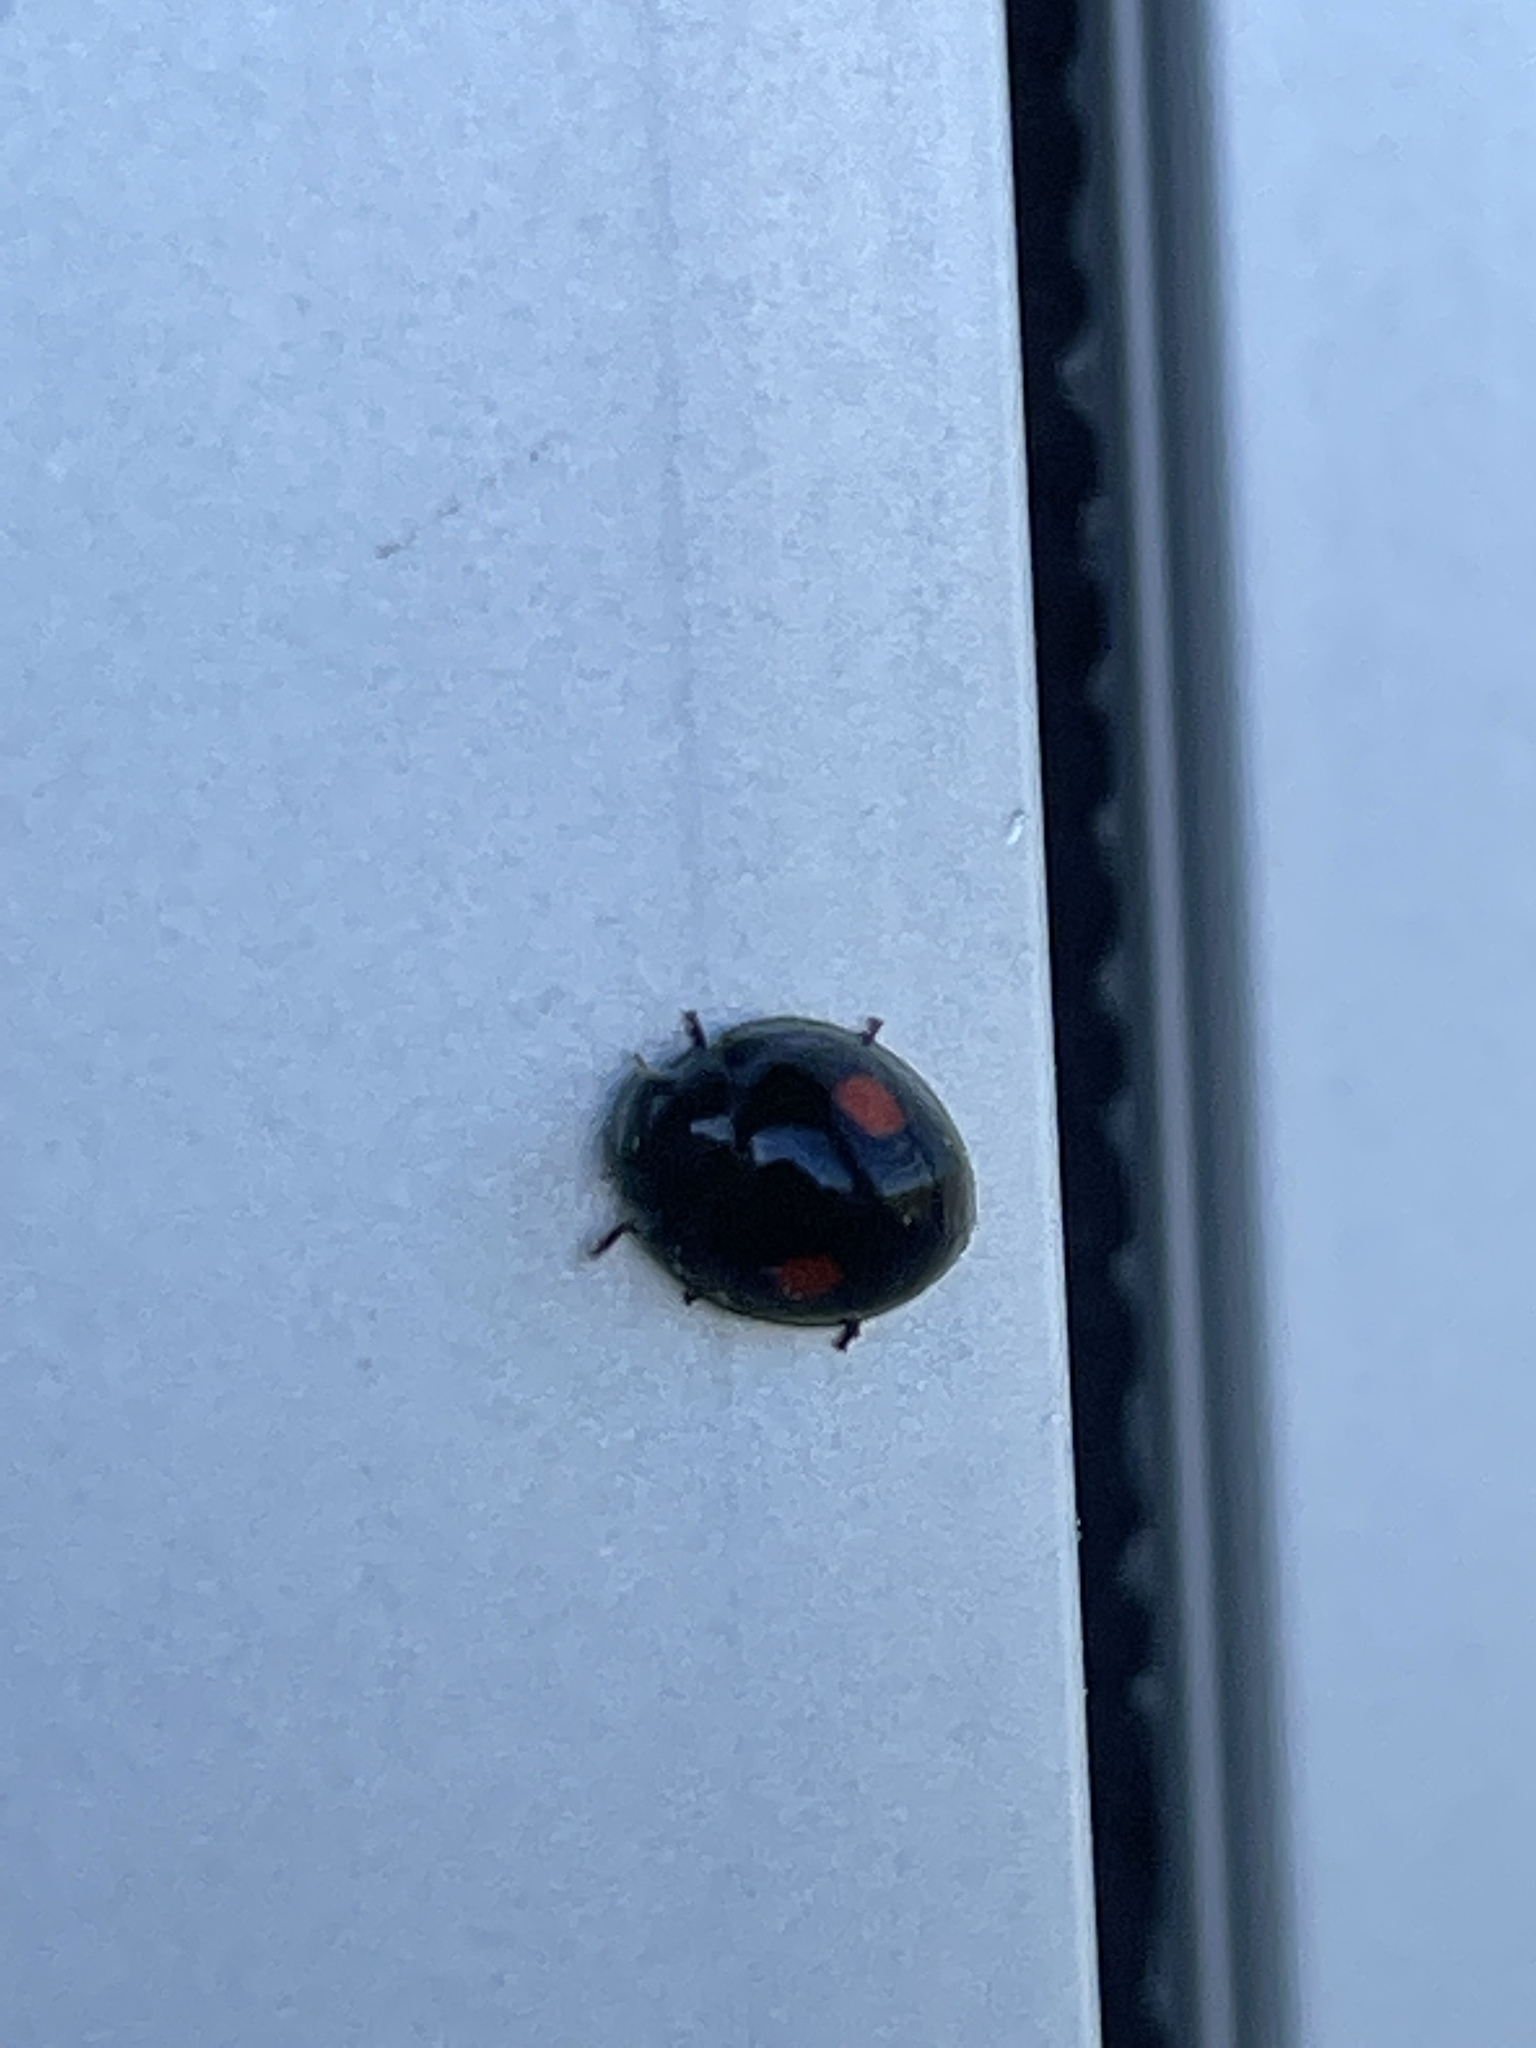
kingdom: Animalia
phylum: Arthropoda
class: Insecta
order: Coleoptera
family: Coccinellidae
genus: Chilocorus
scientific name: Chilocorus stigma
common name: Twicestabbed lady beetle
